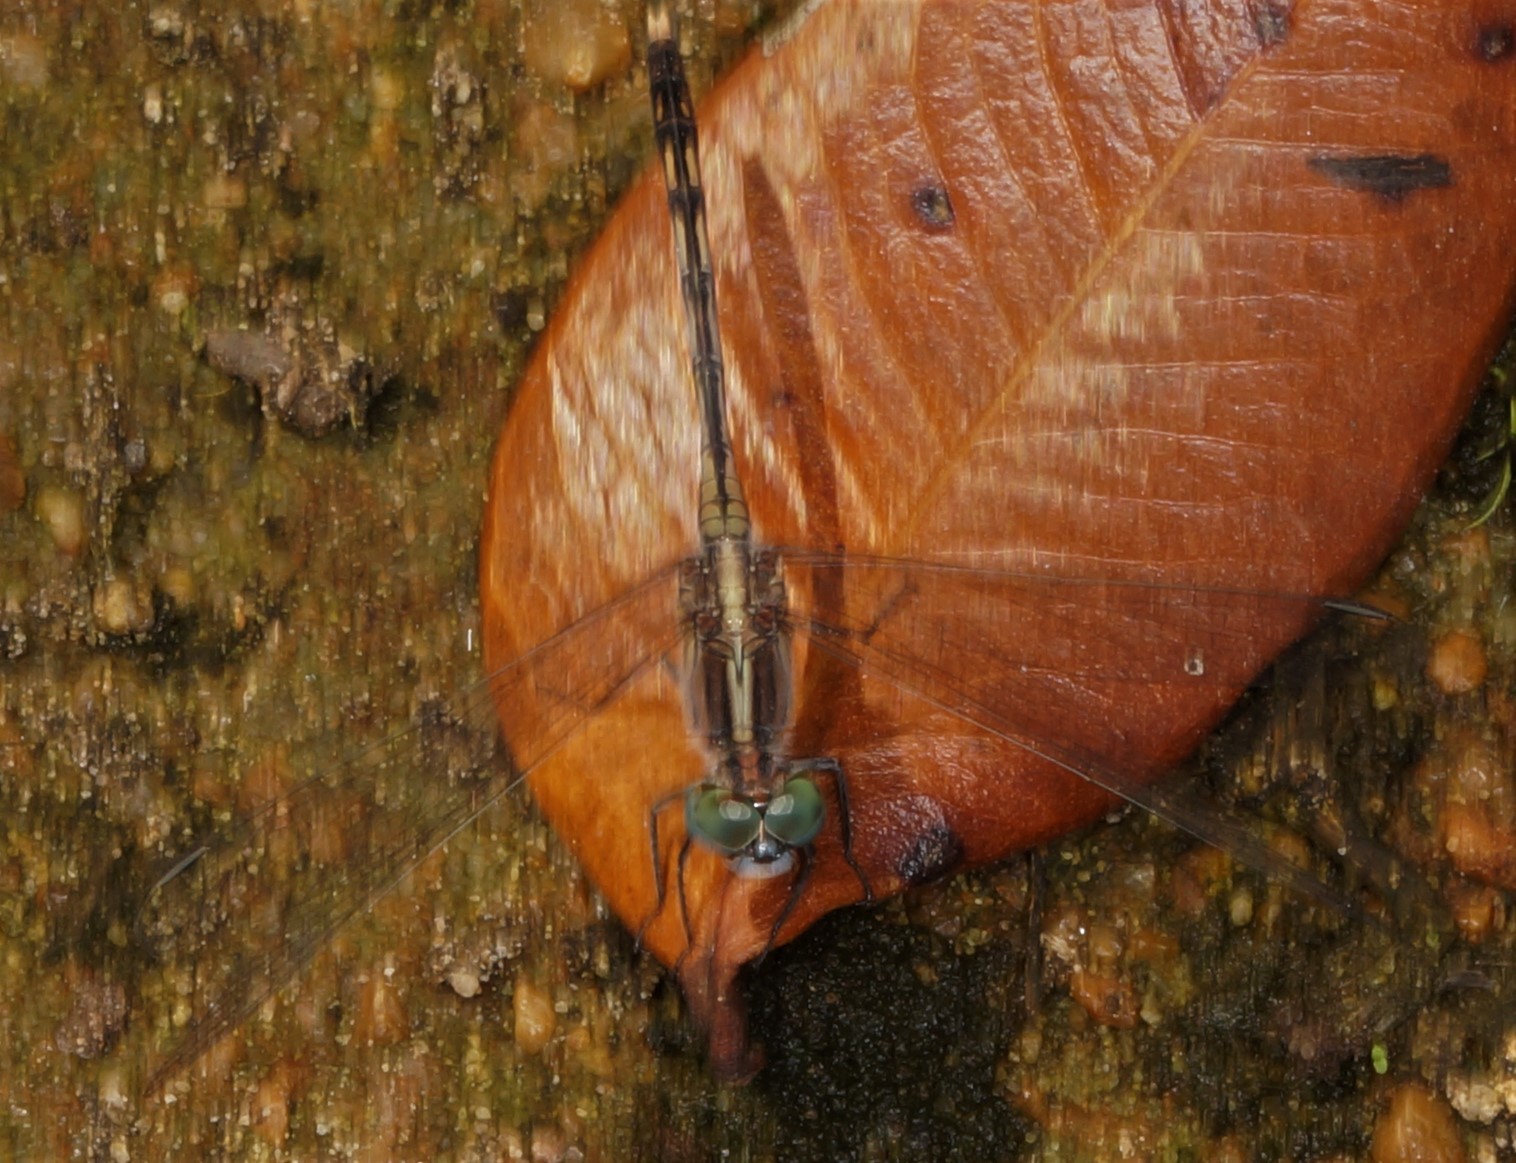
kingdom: Animalia
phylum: Arthropoda
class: Insecta
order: Odonata
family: Libellulidae
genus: Diplacodes
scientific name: Diplacodes trivialis
